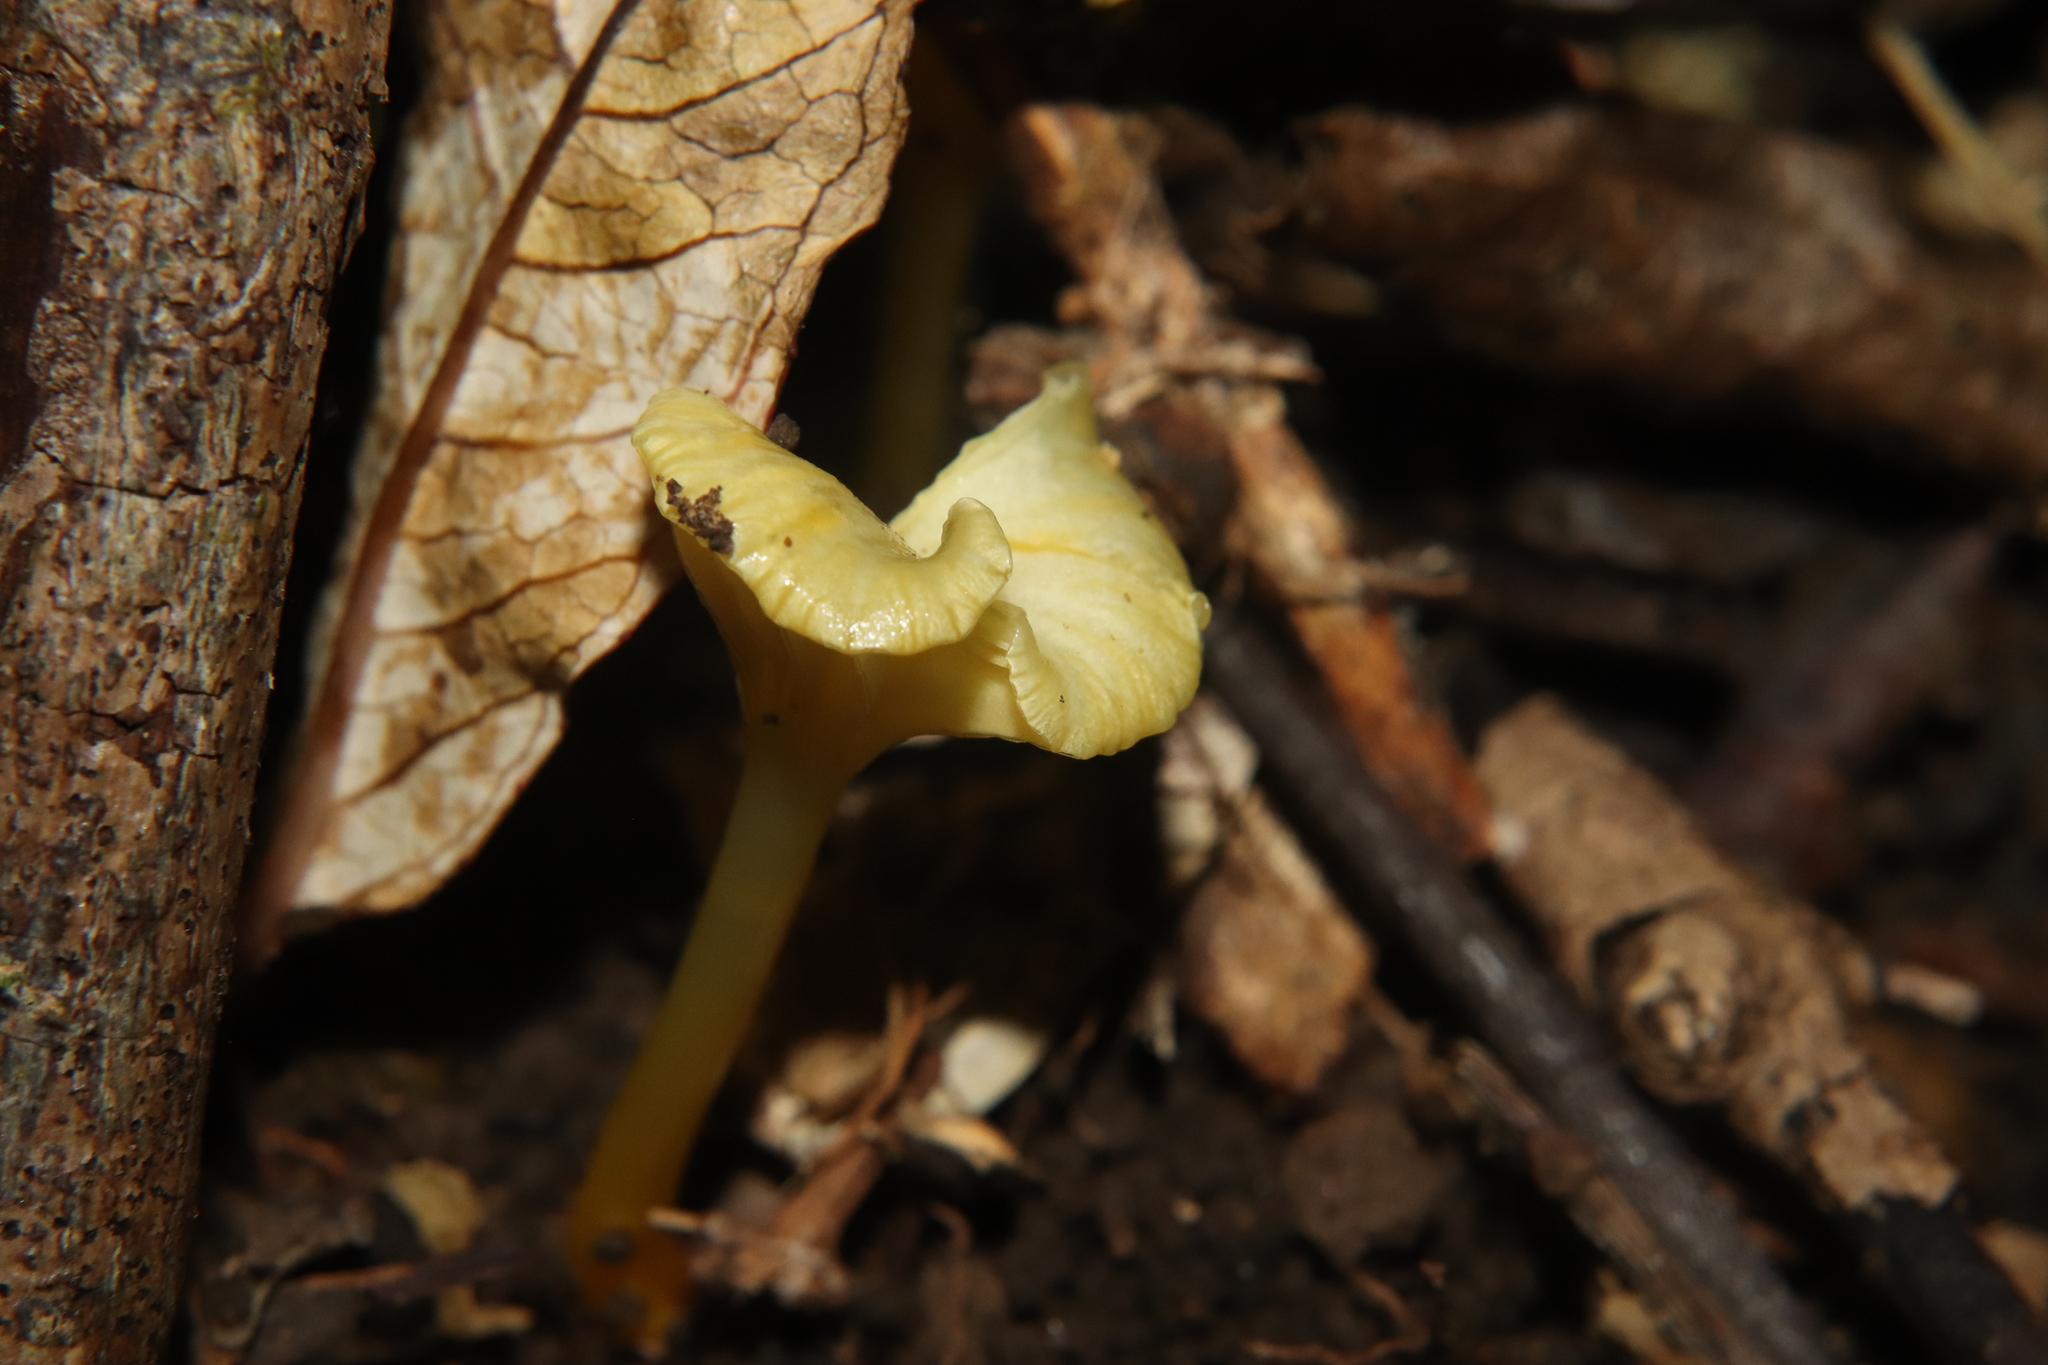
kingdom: Fungi
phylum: Basidiomycota
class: Agaricomycetes
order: Agaricales
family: Hygrophoraceae
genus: Gloioxanthomyces
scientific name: Gloioxanthomyces
